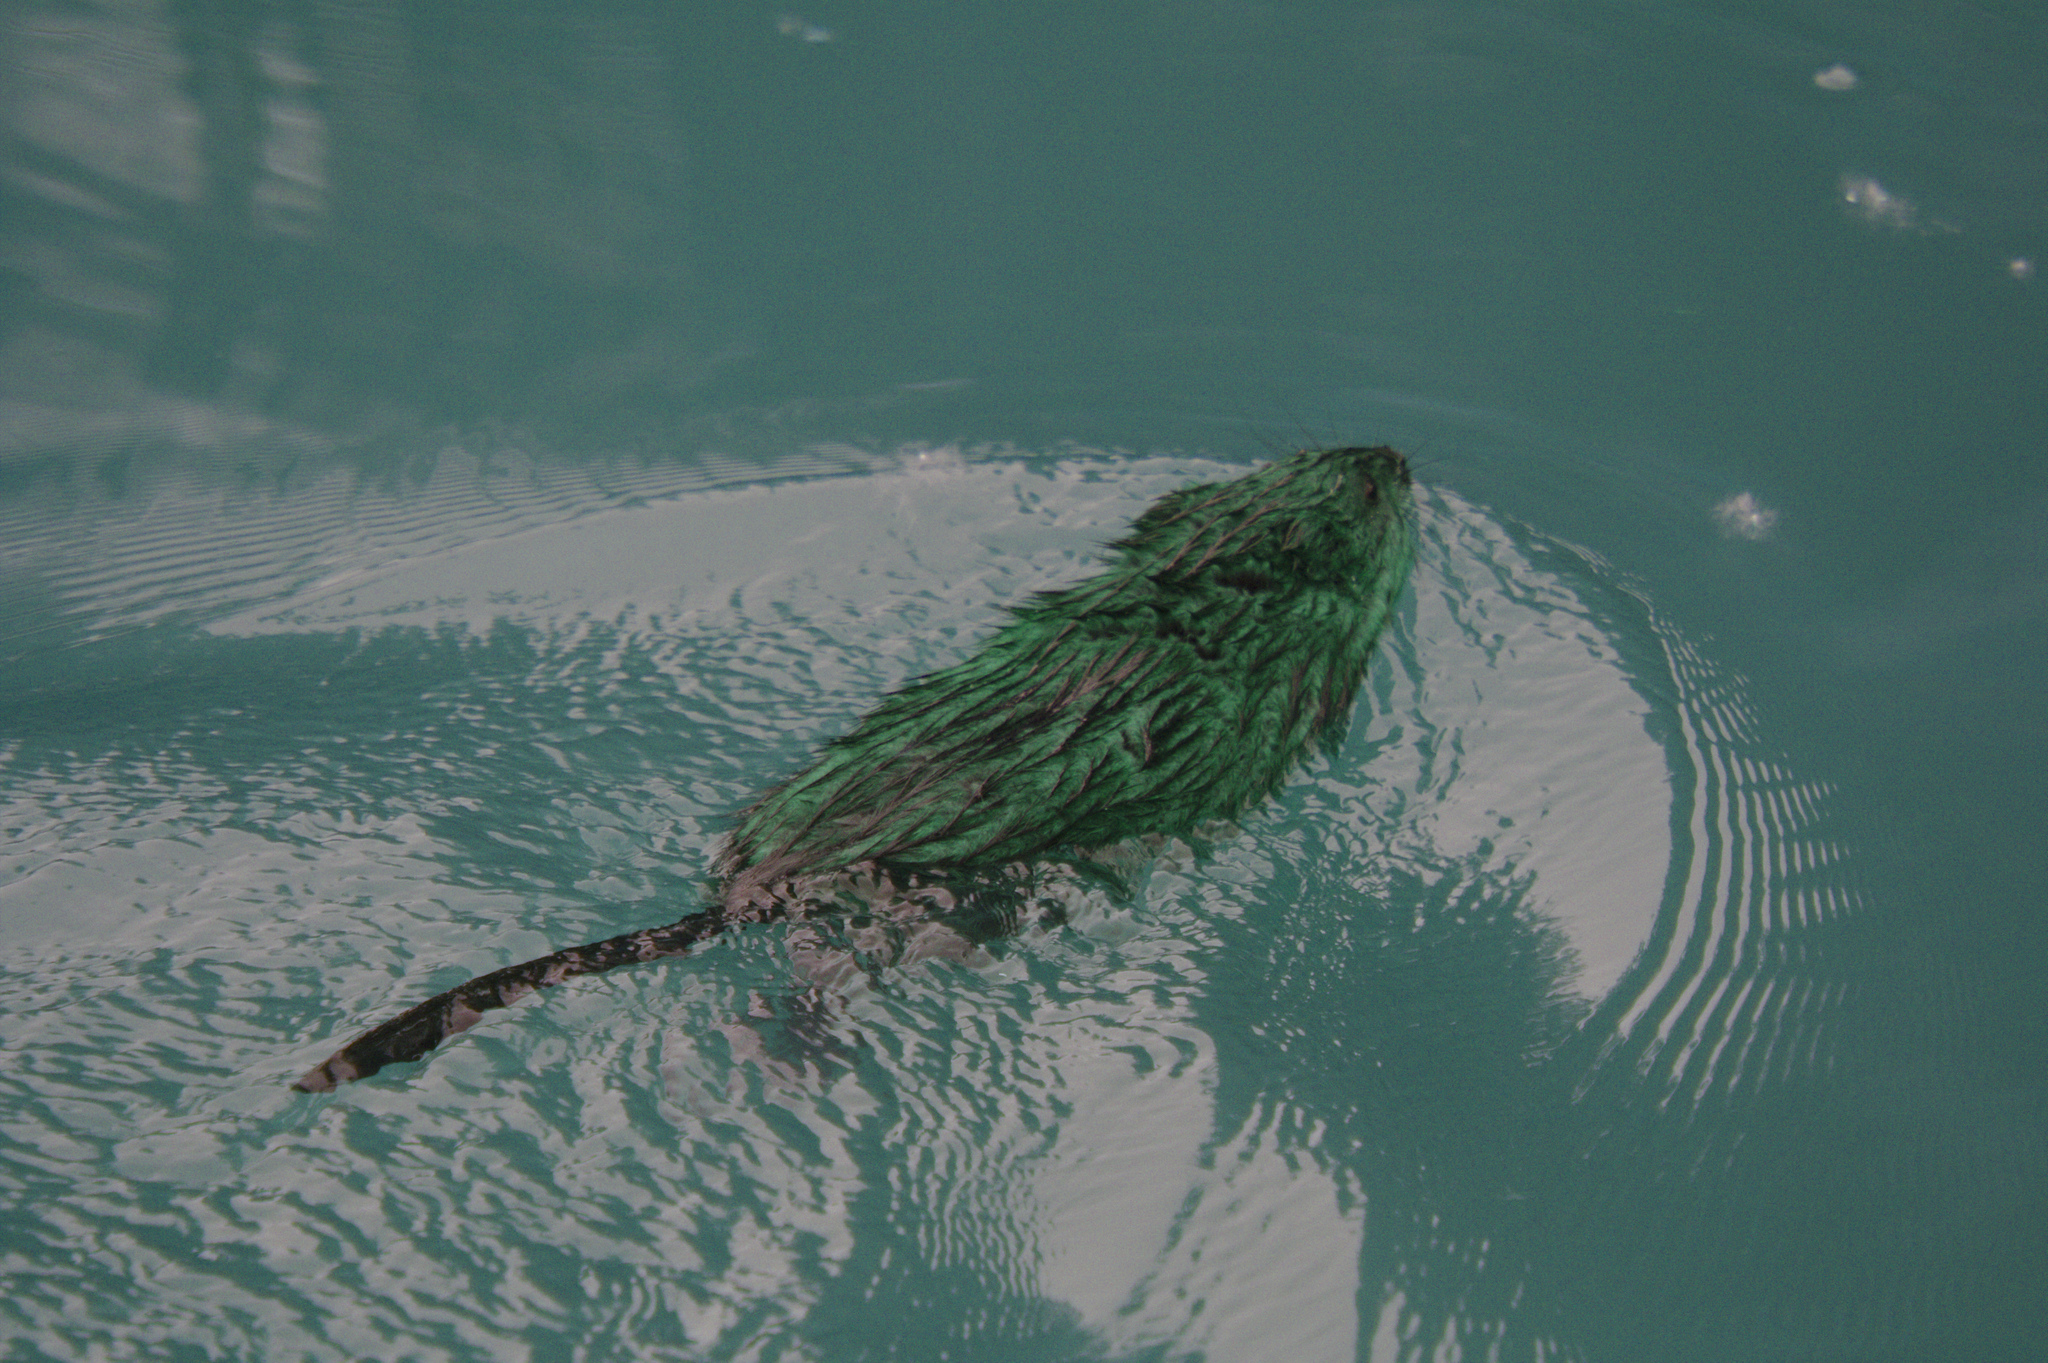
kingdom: Animalia
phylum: Chordata
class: Mammalia
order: Rodentia
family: Cricetidae
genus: Ondatra
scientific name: Ondatra zibethicus
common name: Muskrat
